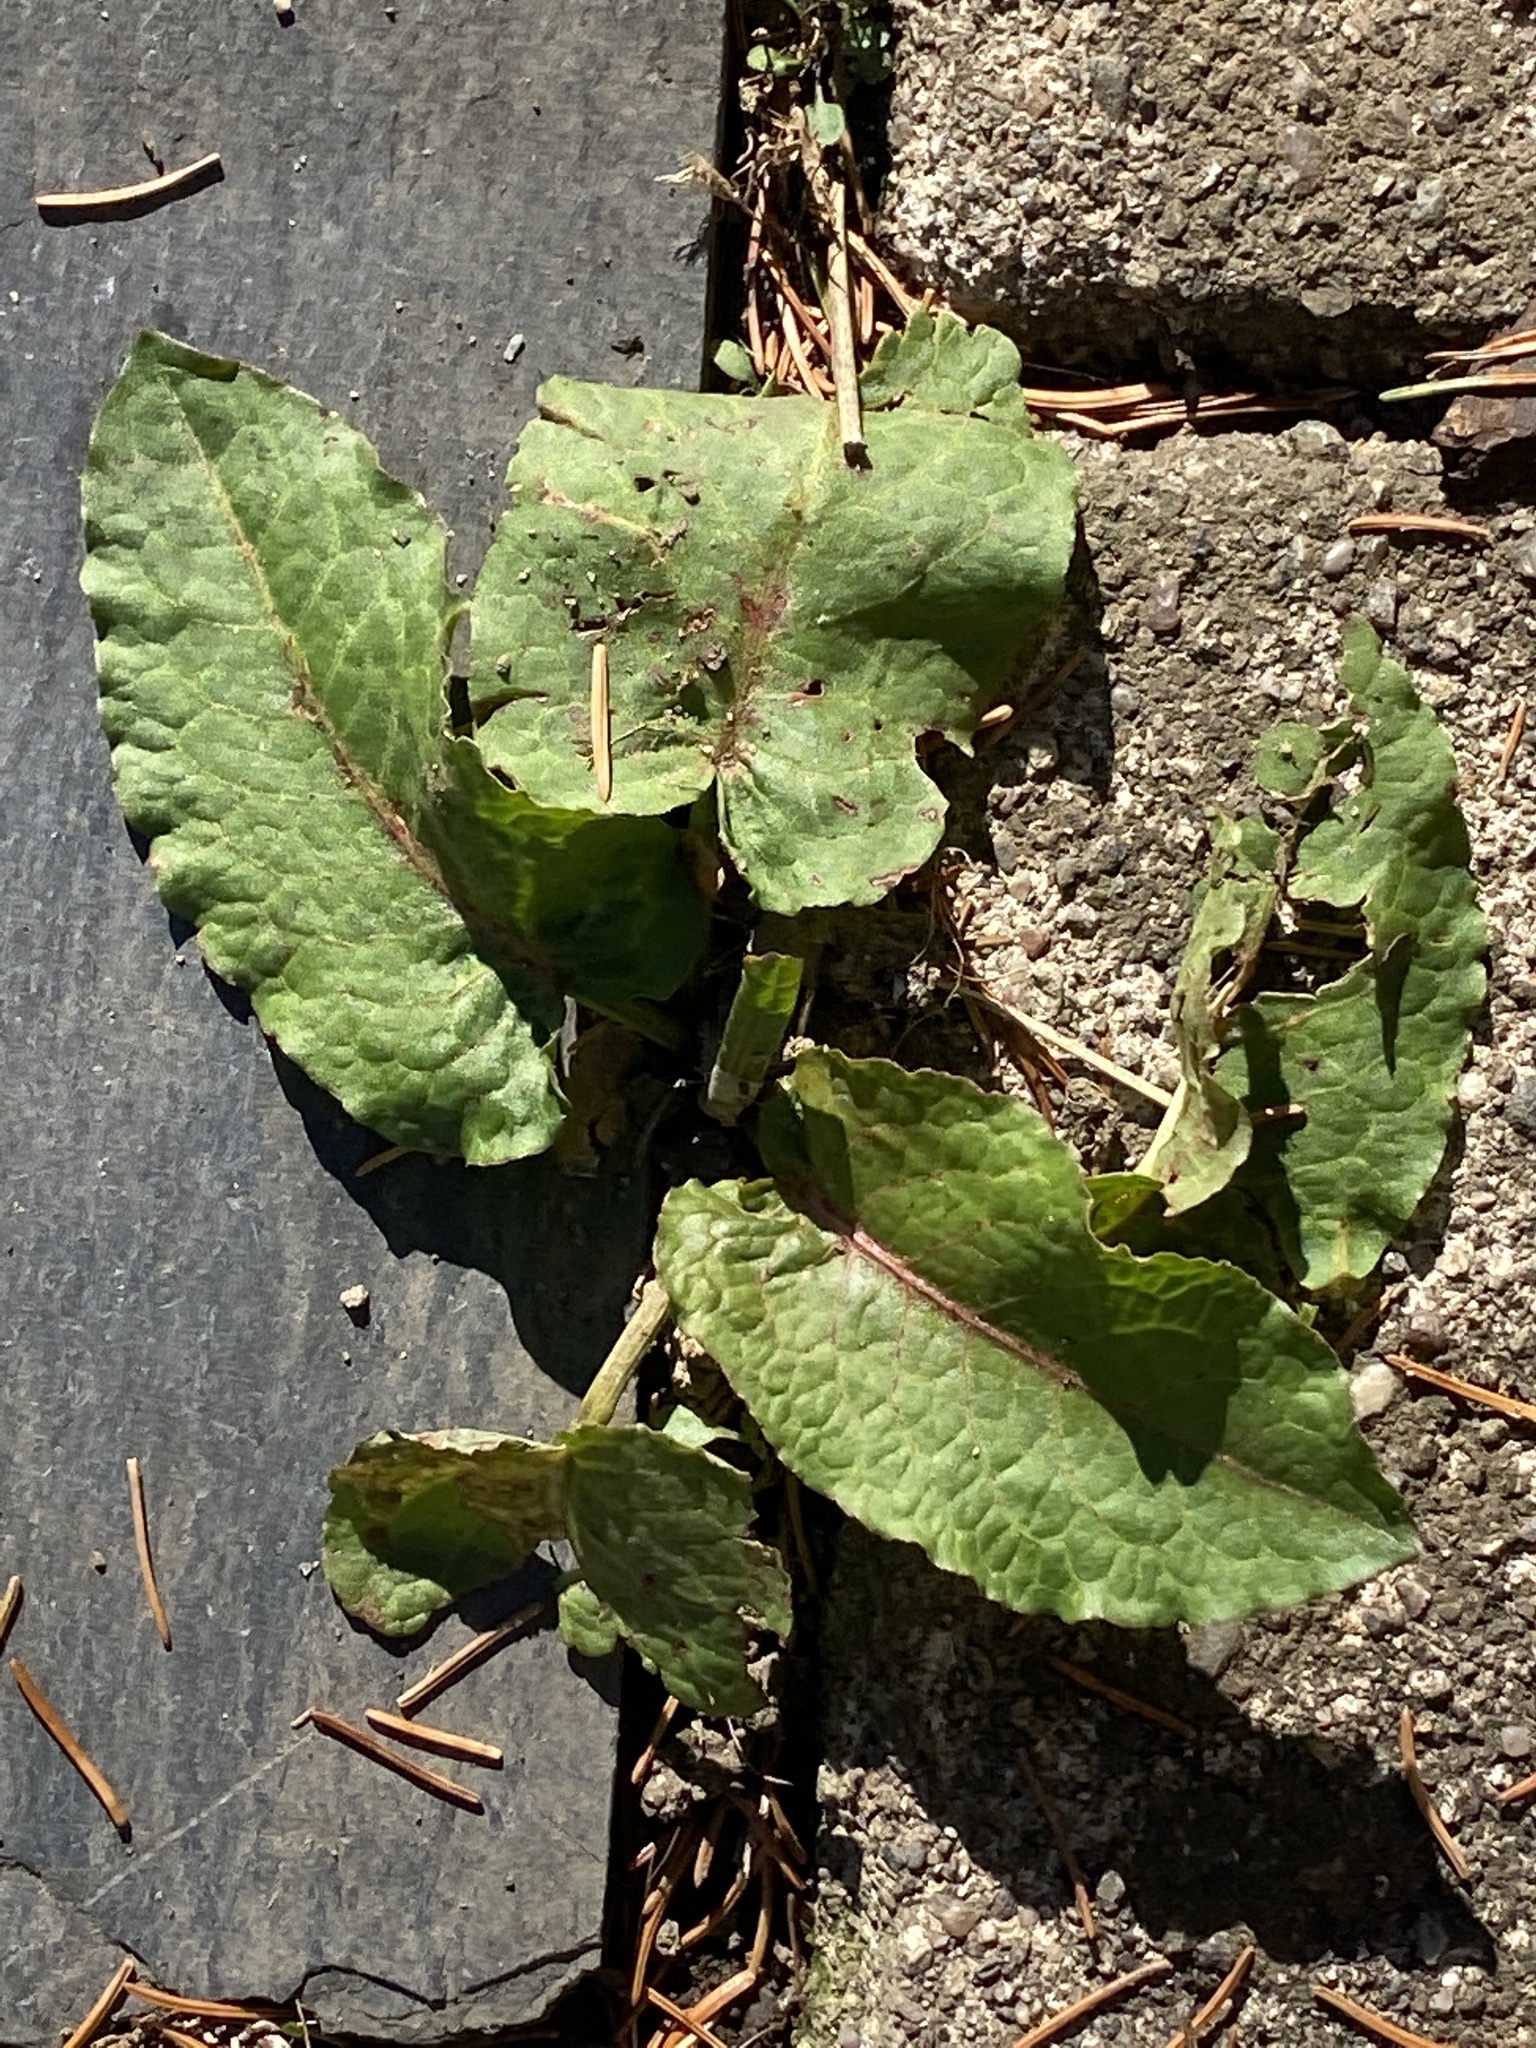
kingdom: Plantae
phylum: Tracheophyta
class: Magnoliopsida
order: Caryophyllales
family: Polygonaceae
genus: Rumex
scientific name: Rumex obtusifolius
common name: Bitter dock
